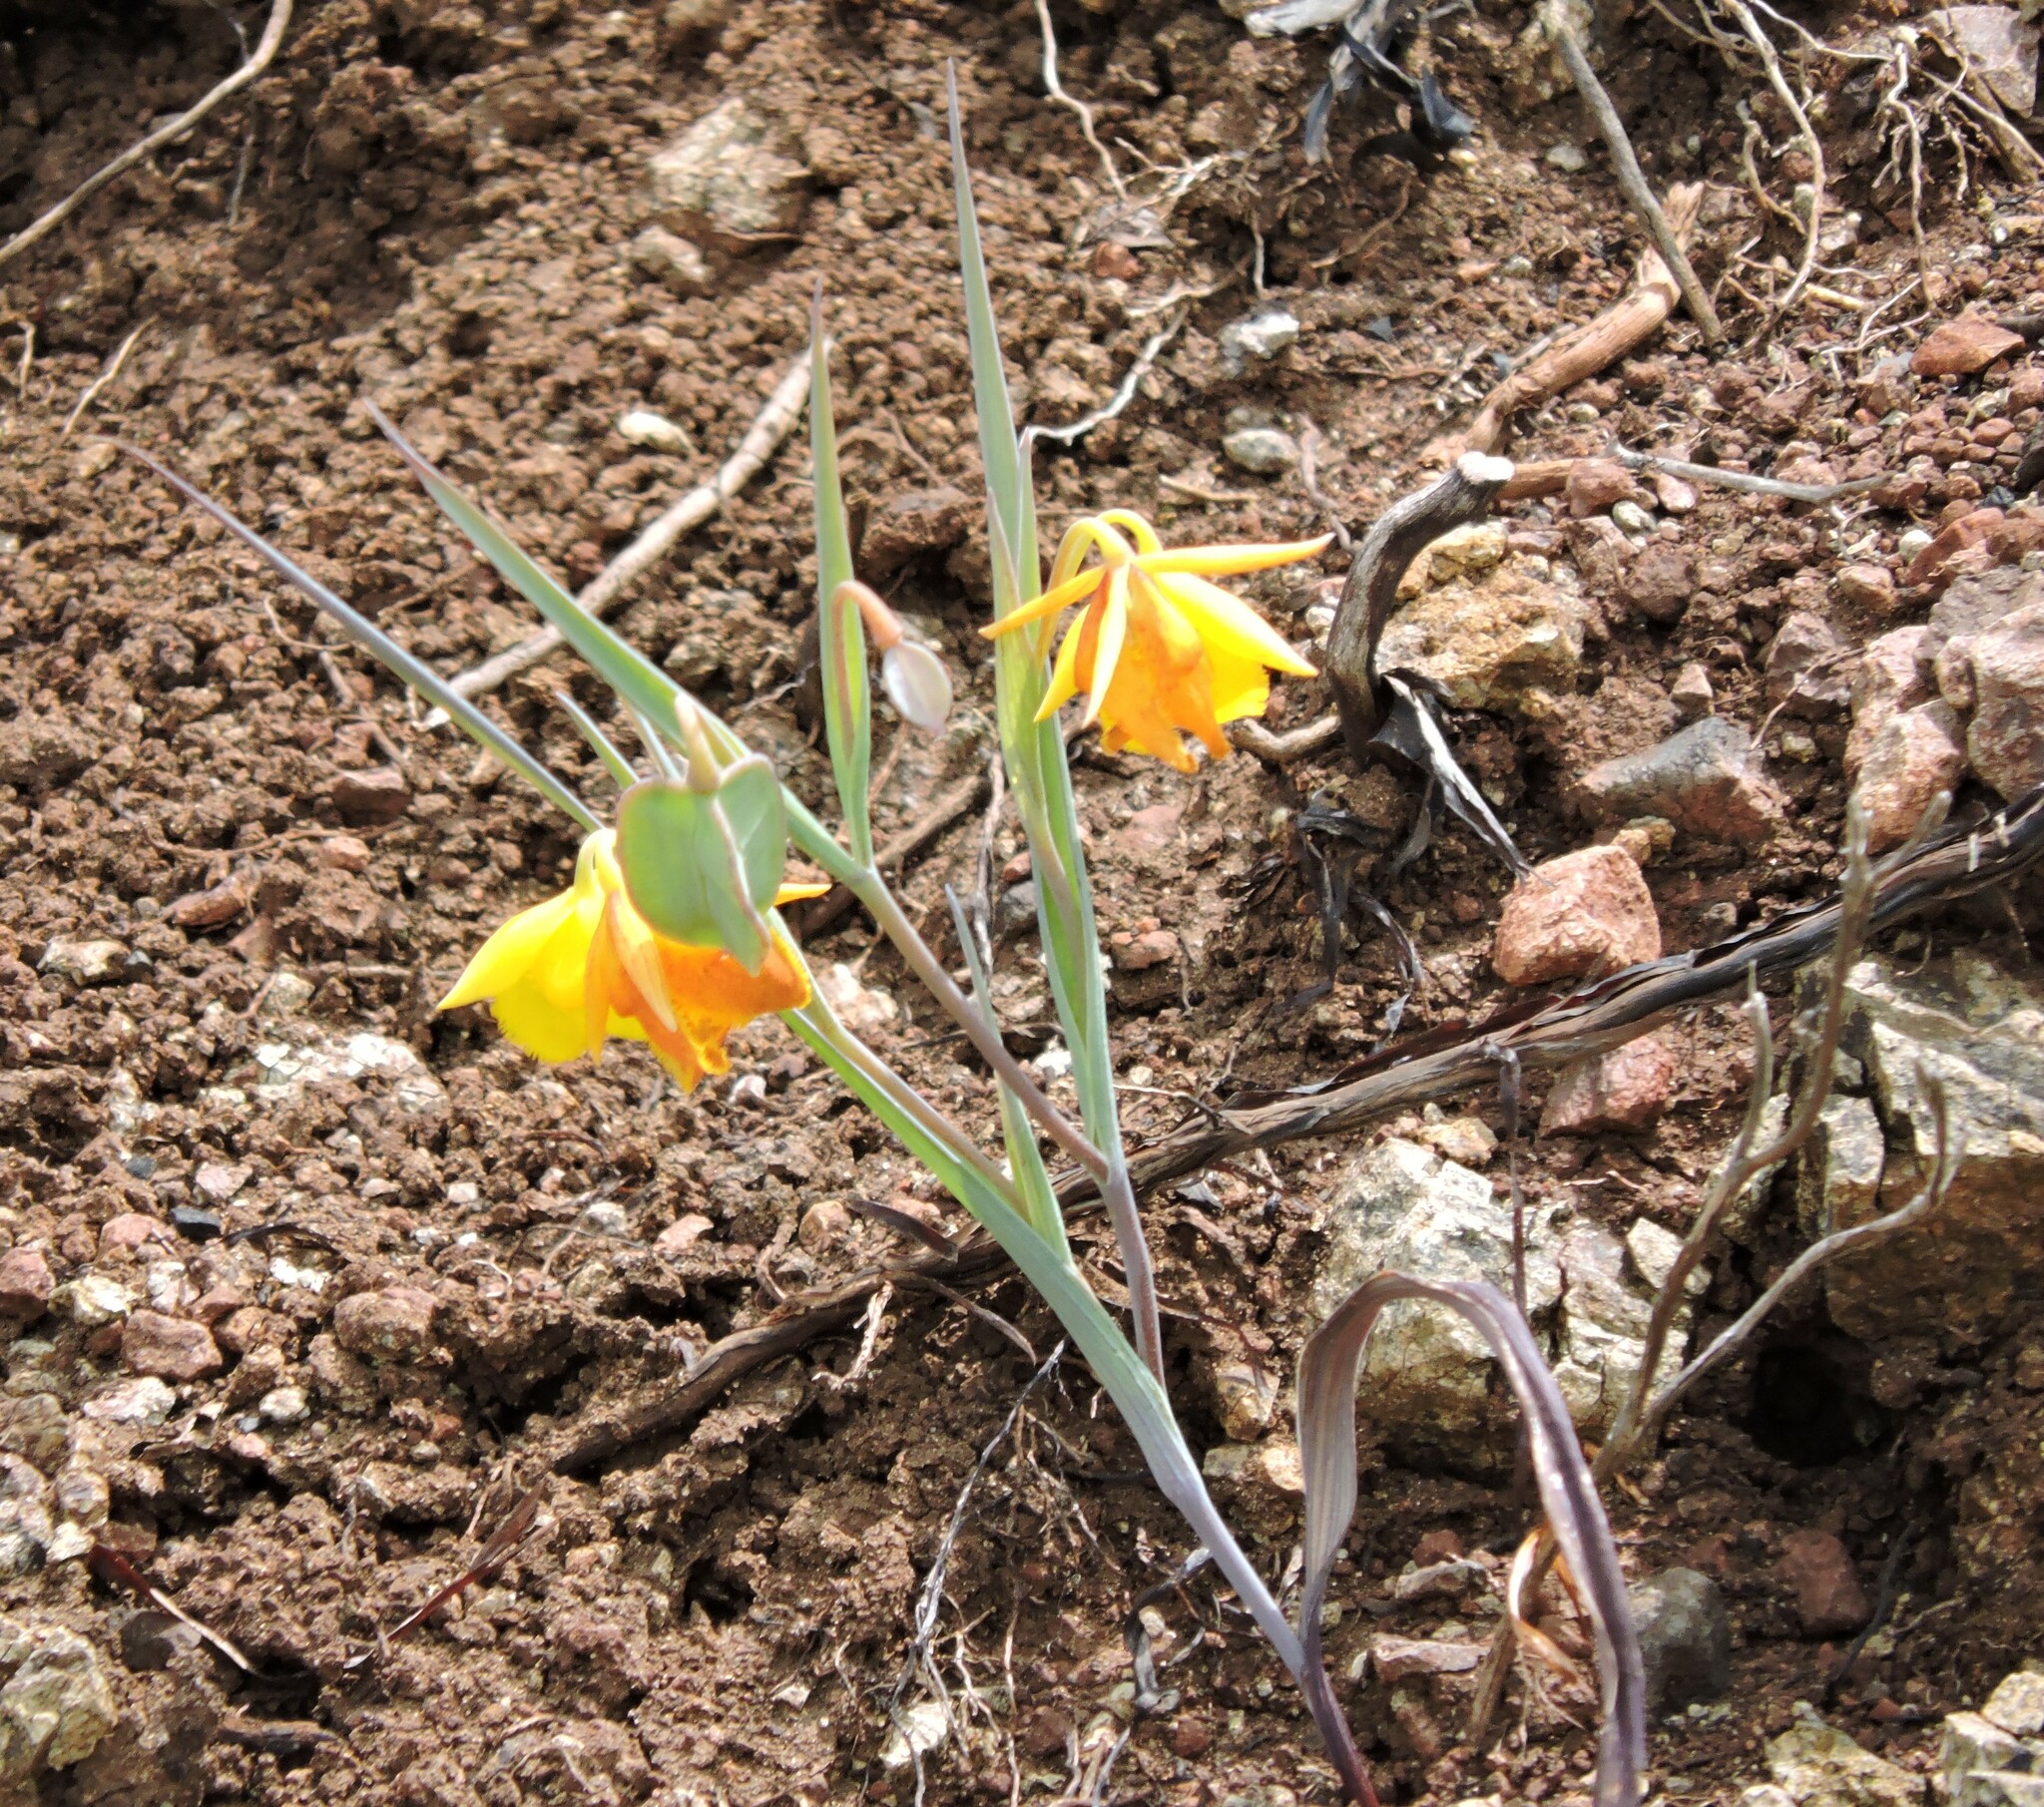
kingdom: Plantae
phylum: Tracheophyta
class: Liliopsida
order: Liliales
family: Liliaceae
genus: Calochortus
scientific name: Calochortus amabilis
